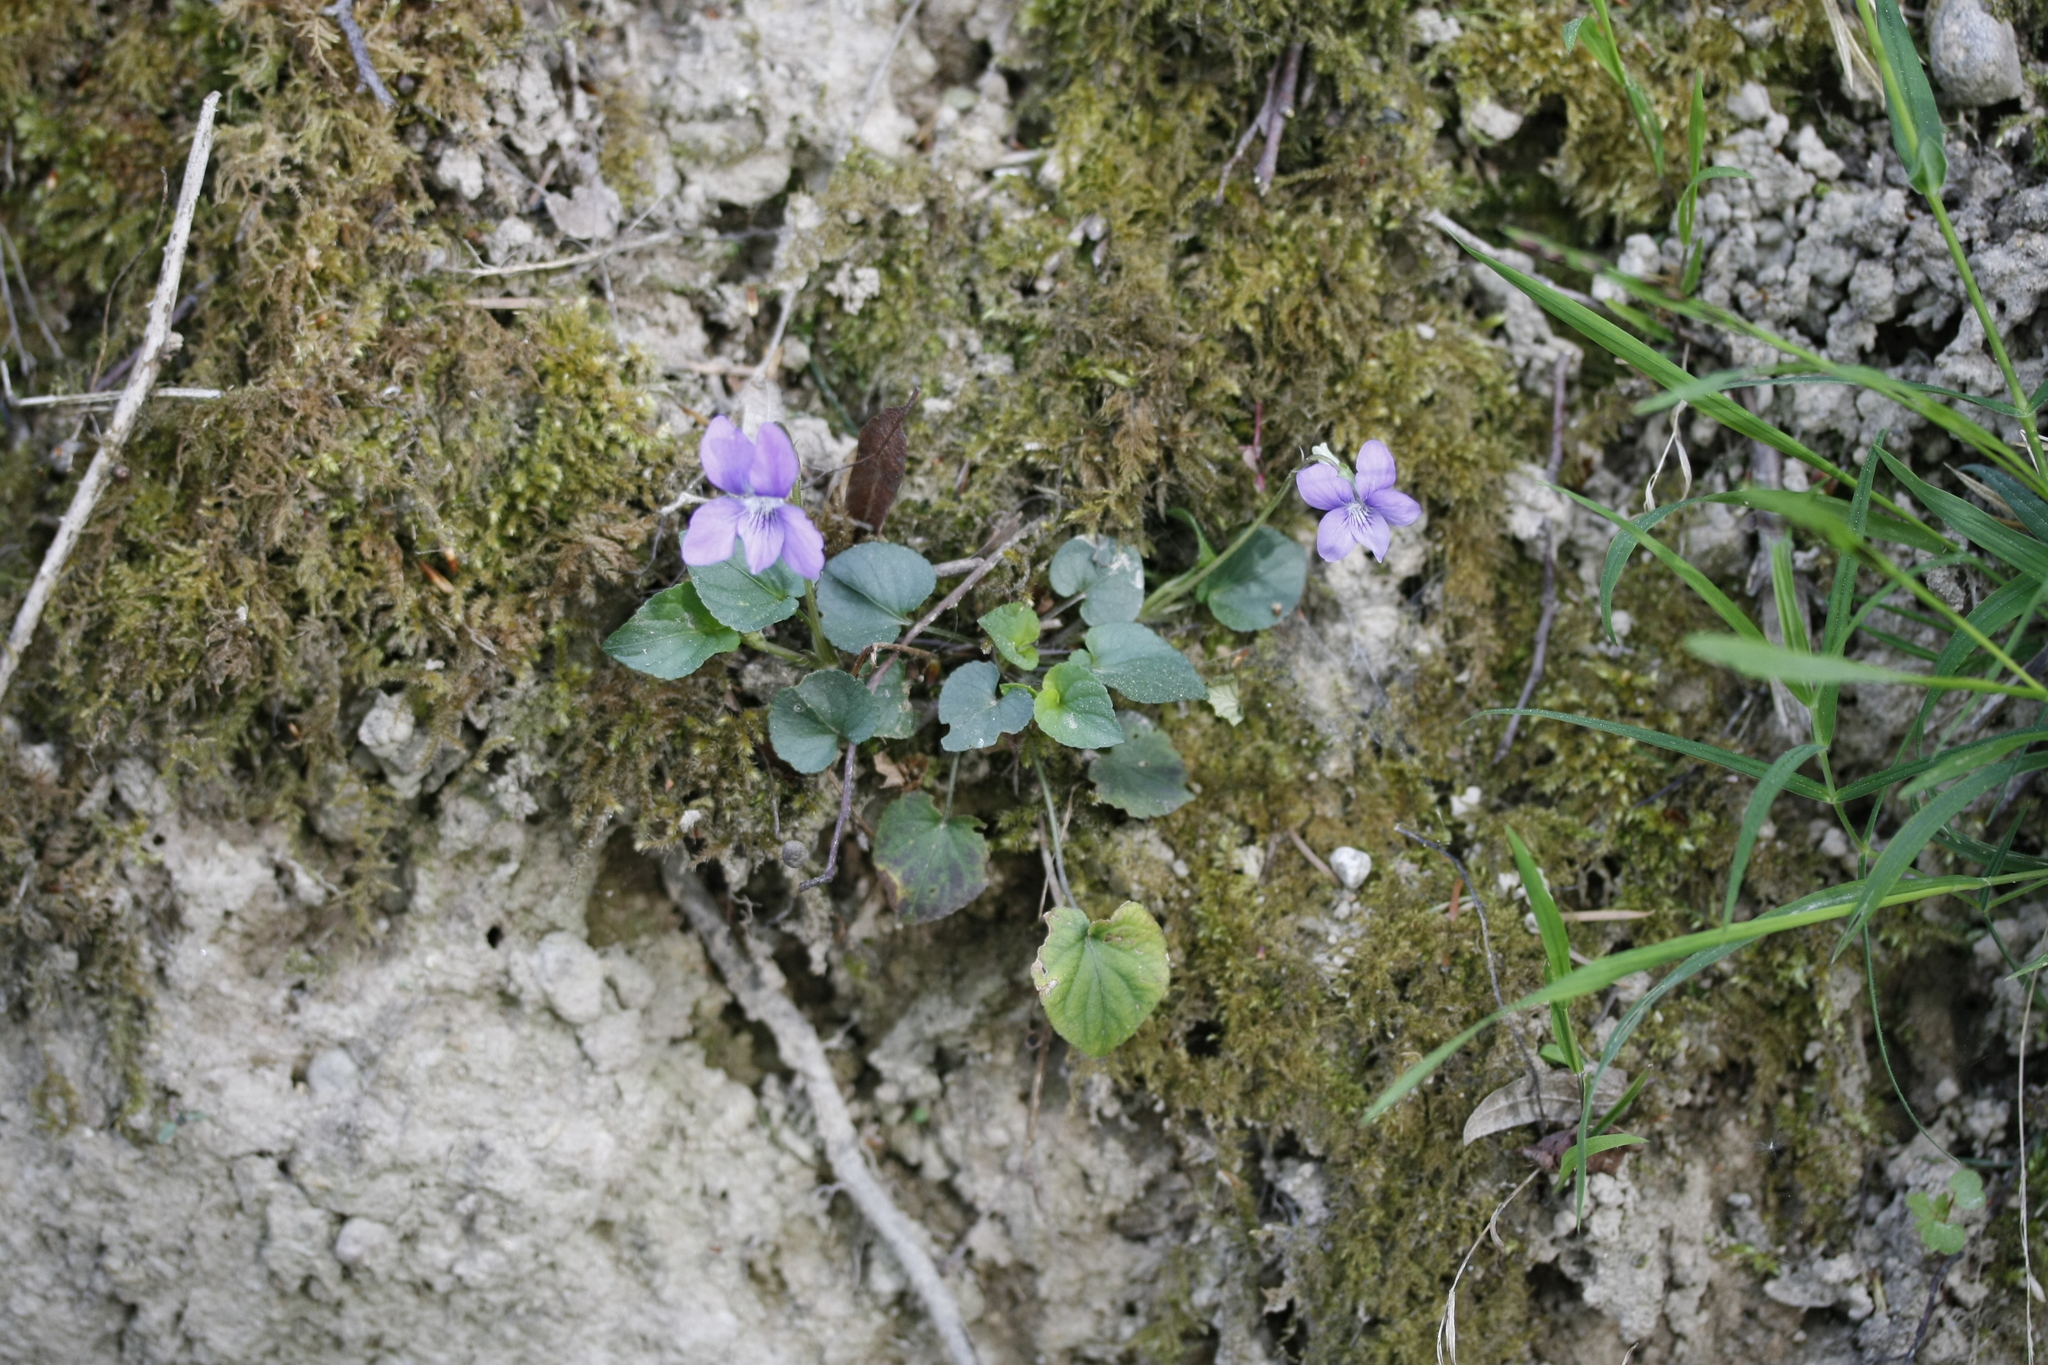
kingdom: Plantae
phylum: Tracheophyta
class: Magnoliopsida
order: Malpighiales
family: Violaceae
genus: Viola
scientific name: Viola riviniana
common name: Common dog-violet
